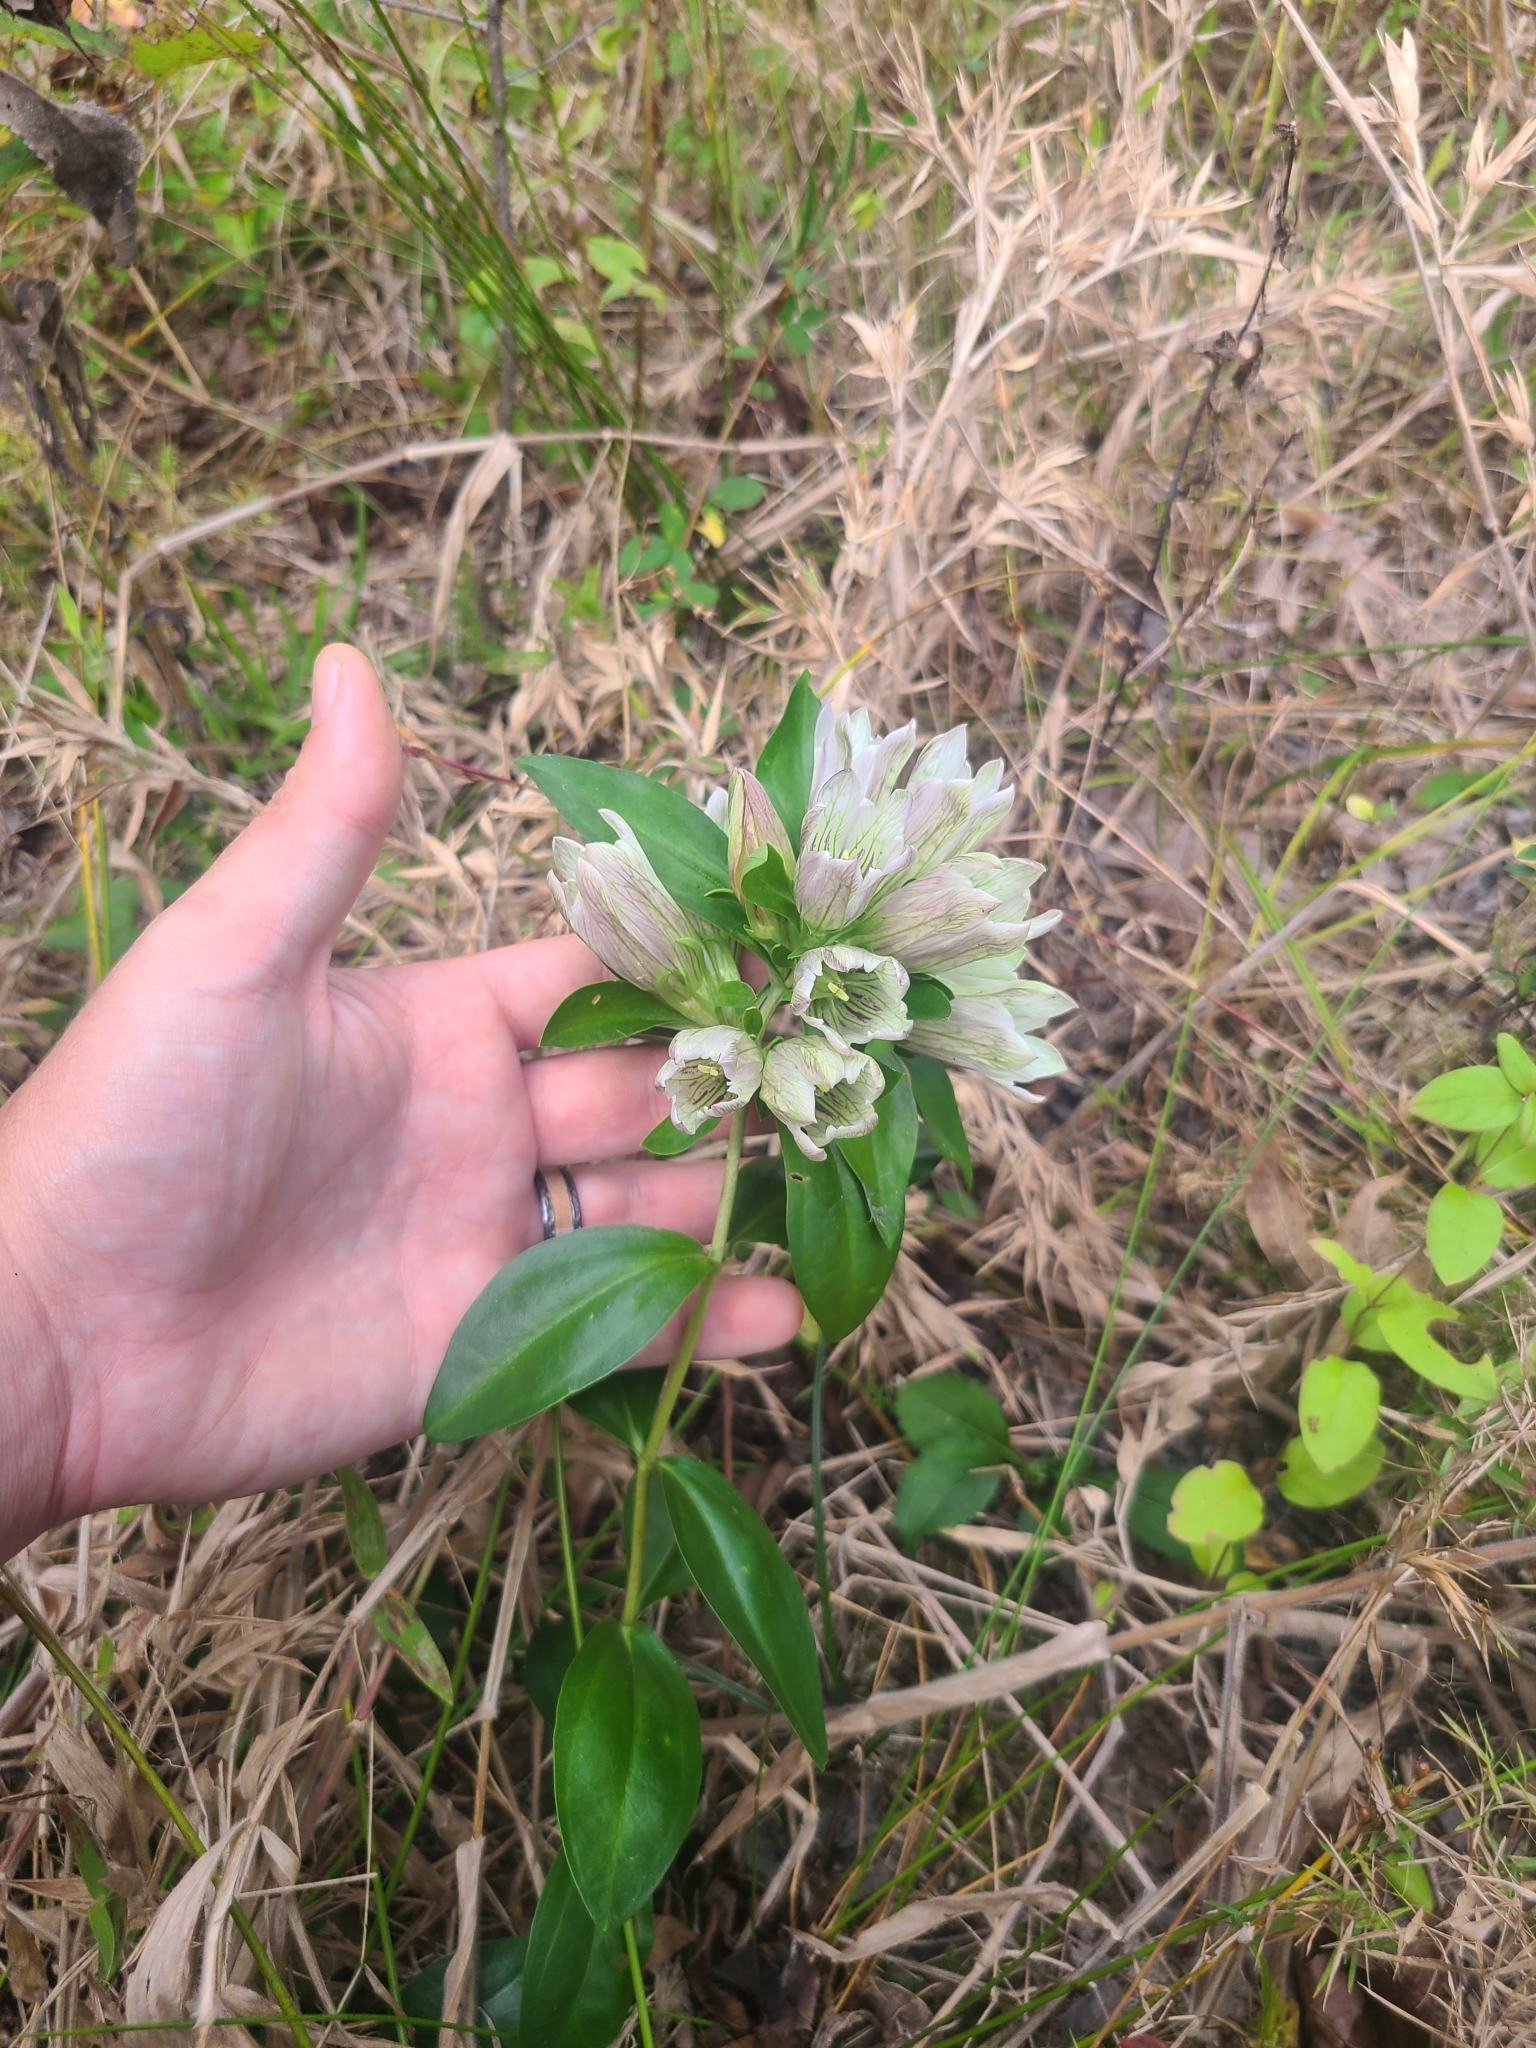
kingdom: Plantae
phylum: Tracheophyta
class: Magnoliopsida
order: Gentianales
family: Gentianaceae
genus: Gentiana
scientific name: Gentiana villosa
